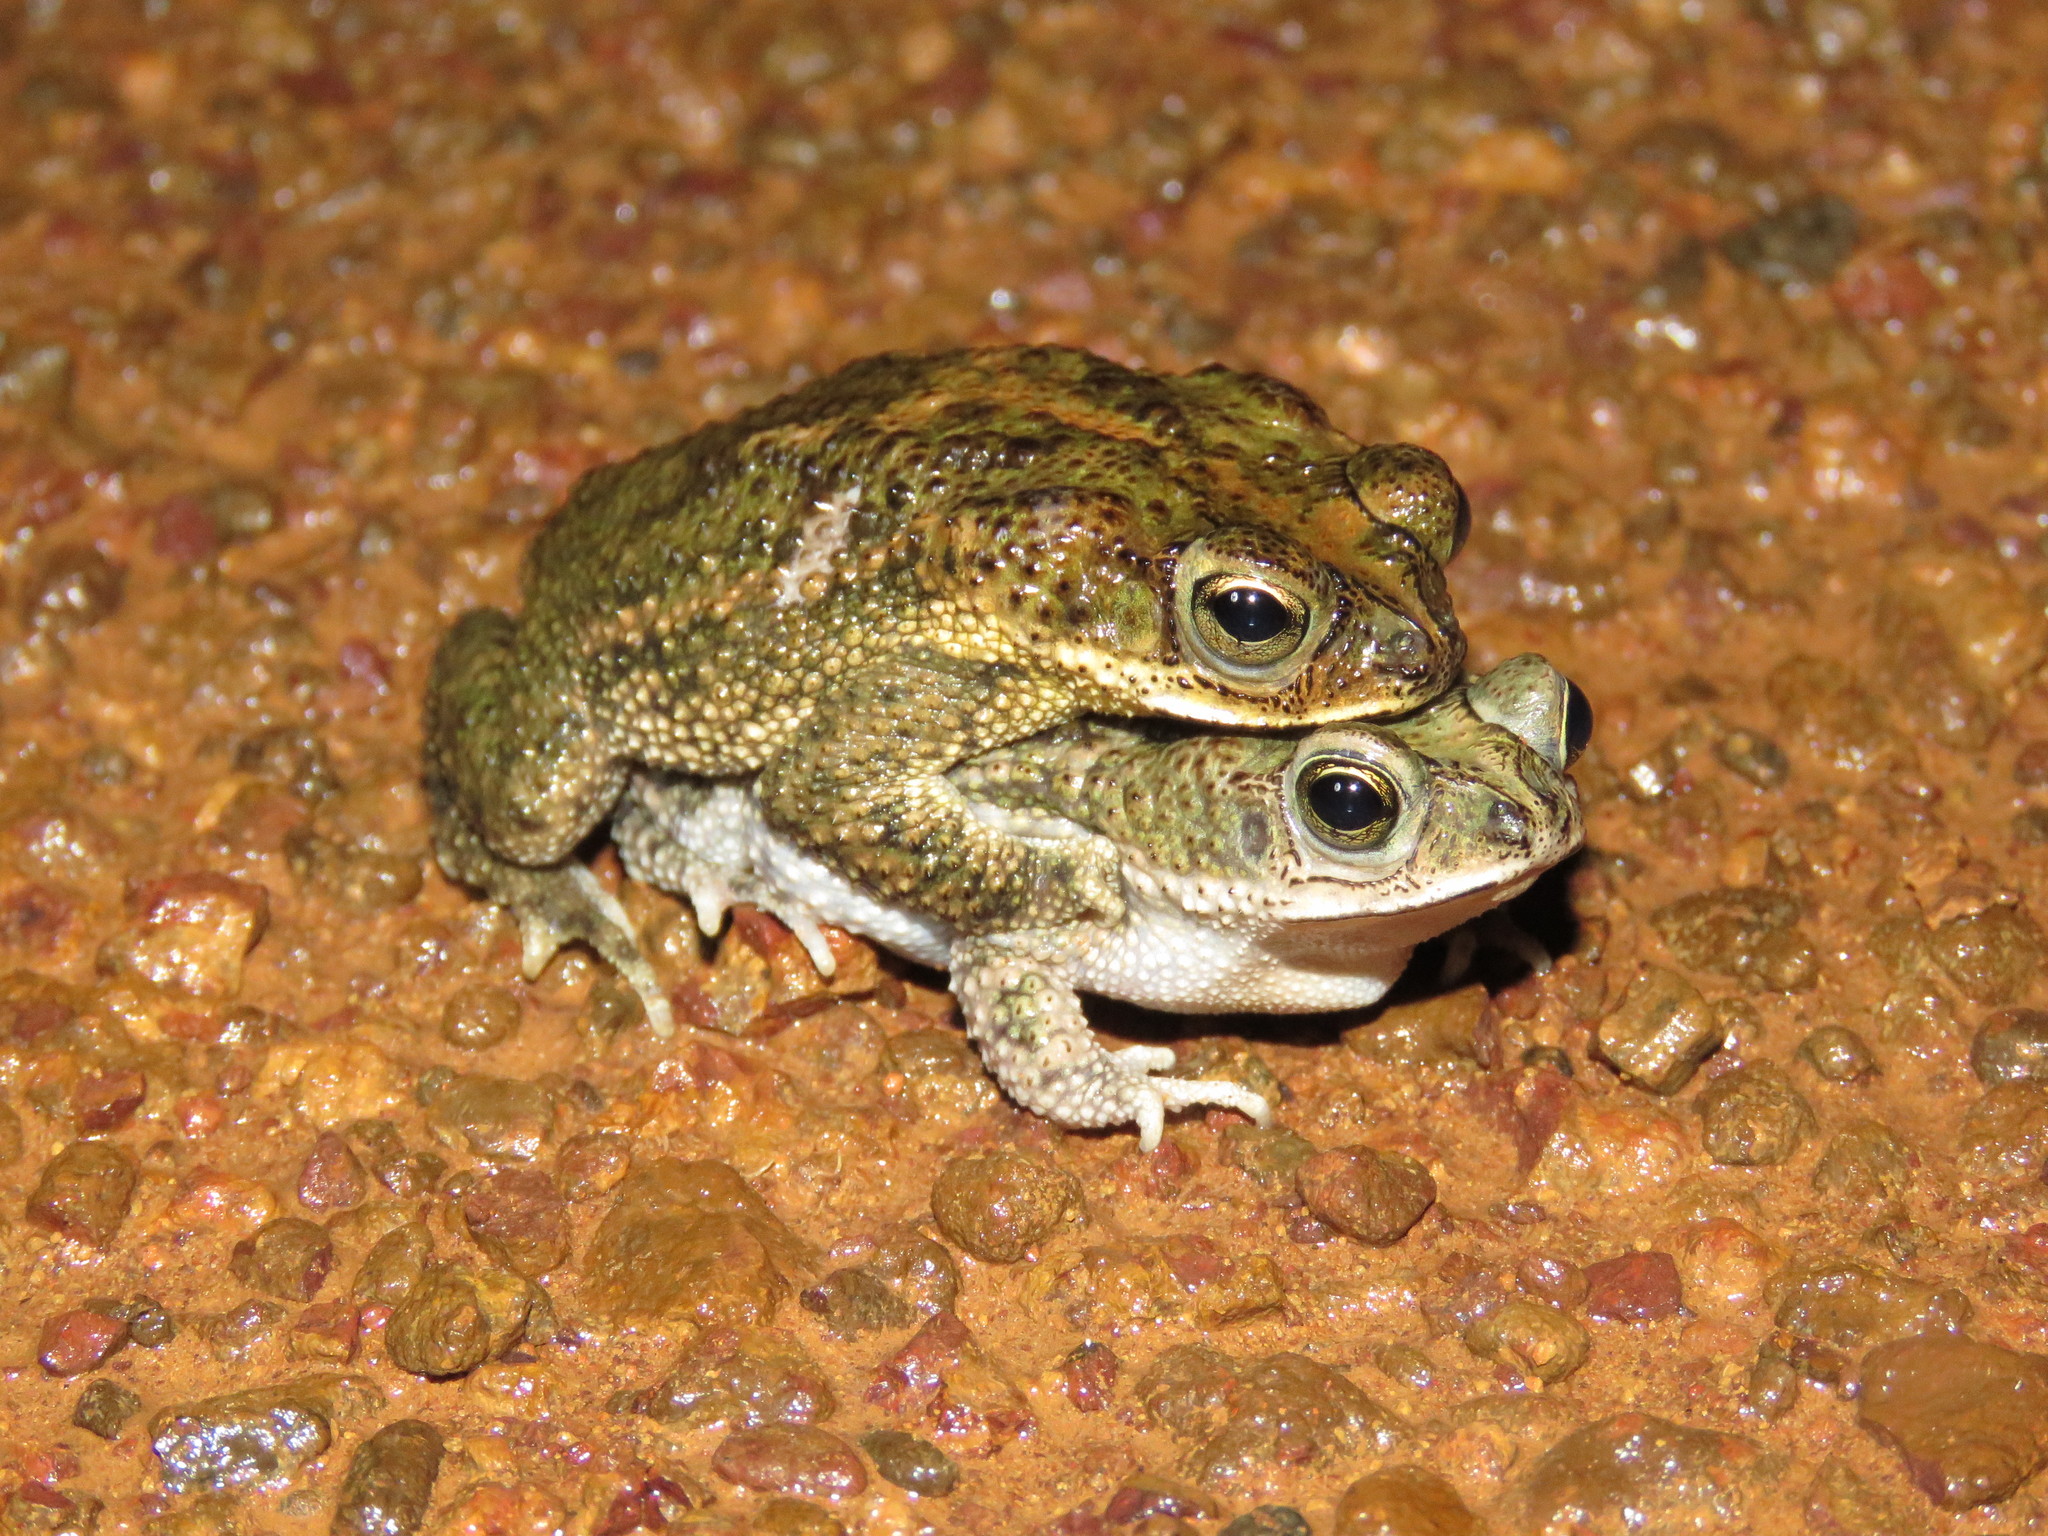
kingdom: Animalia
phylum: Chordata
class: Amphibia
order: Anura
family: Bufonidae
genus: Rhinella
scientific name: Rhinella major
